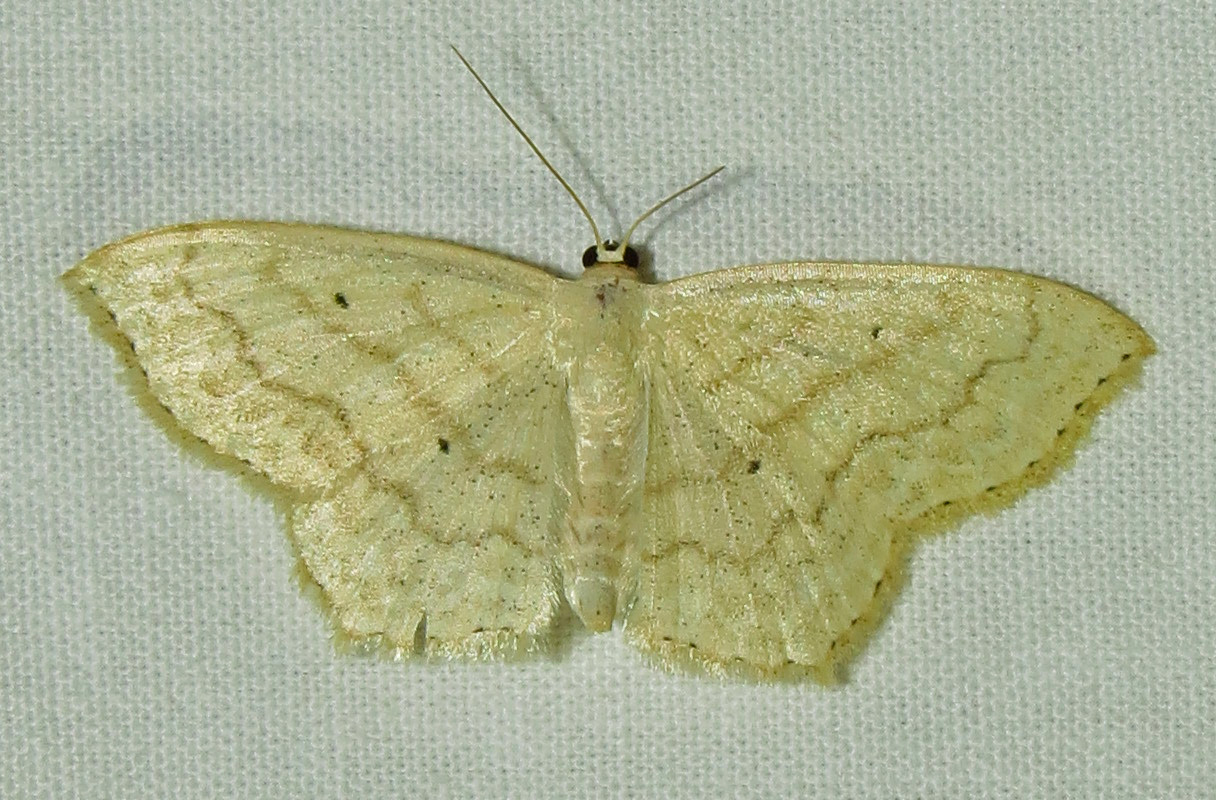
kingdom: Animalia
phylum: Arthropoda
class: Insecta
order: Lepidoptera
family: Geometridae
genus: Scopula
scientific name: Scopula limboundata
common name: Large lace border
